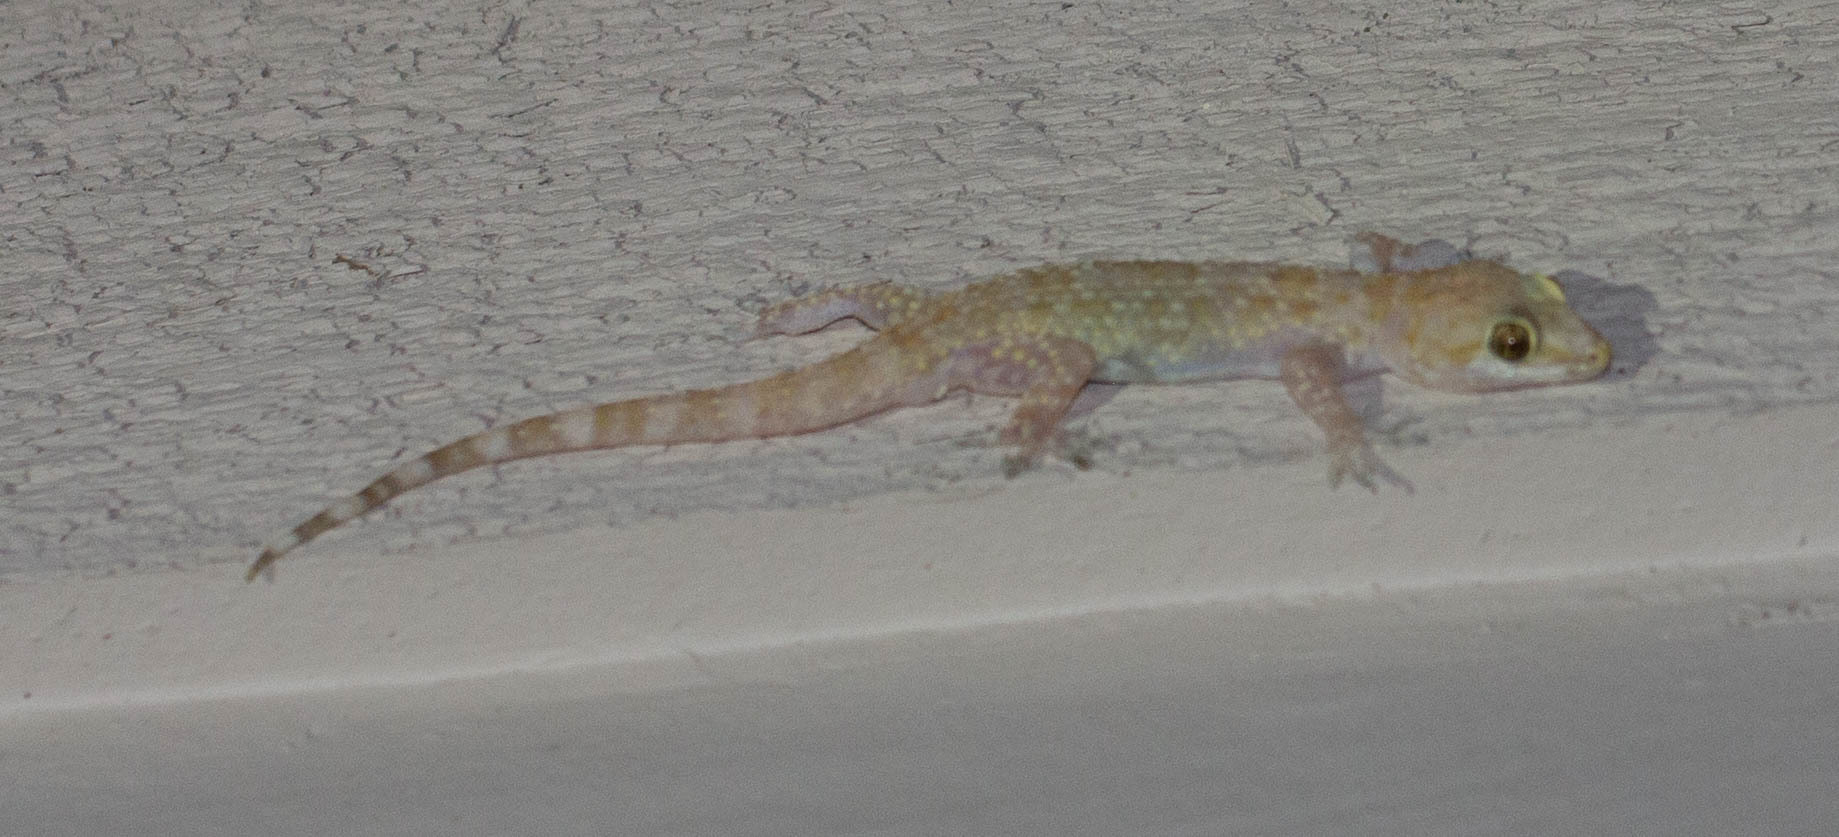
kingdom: Animalia
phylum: Chordata
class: Squamata
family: Gekkonidae
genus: Hemidactylus
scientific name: Hemidactylus turcicus
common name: Turkish gecko
